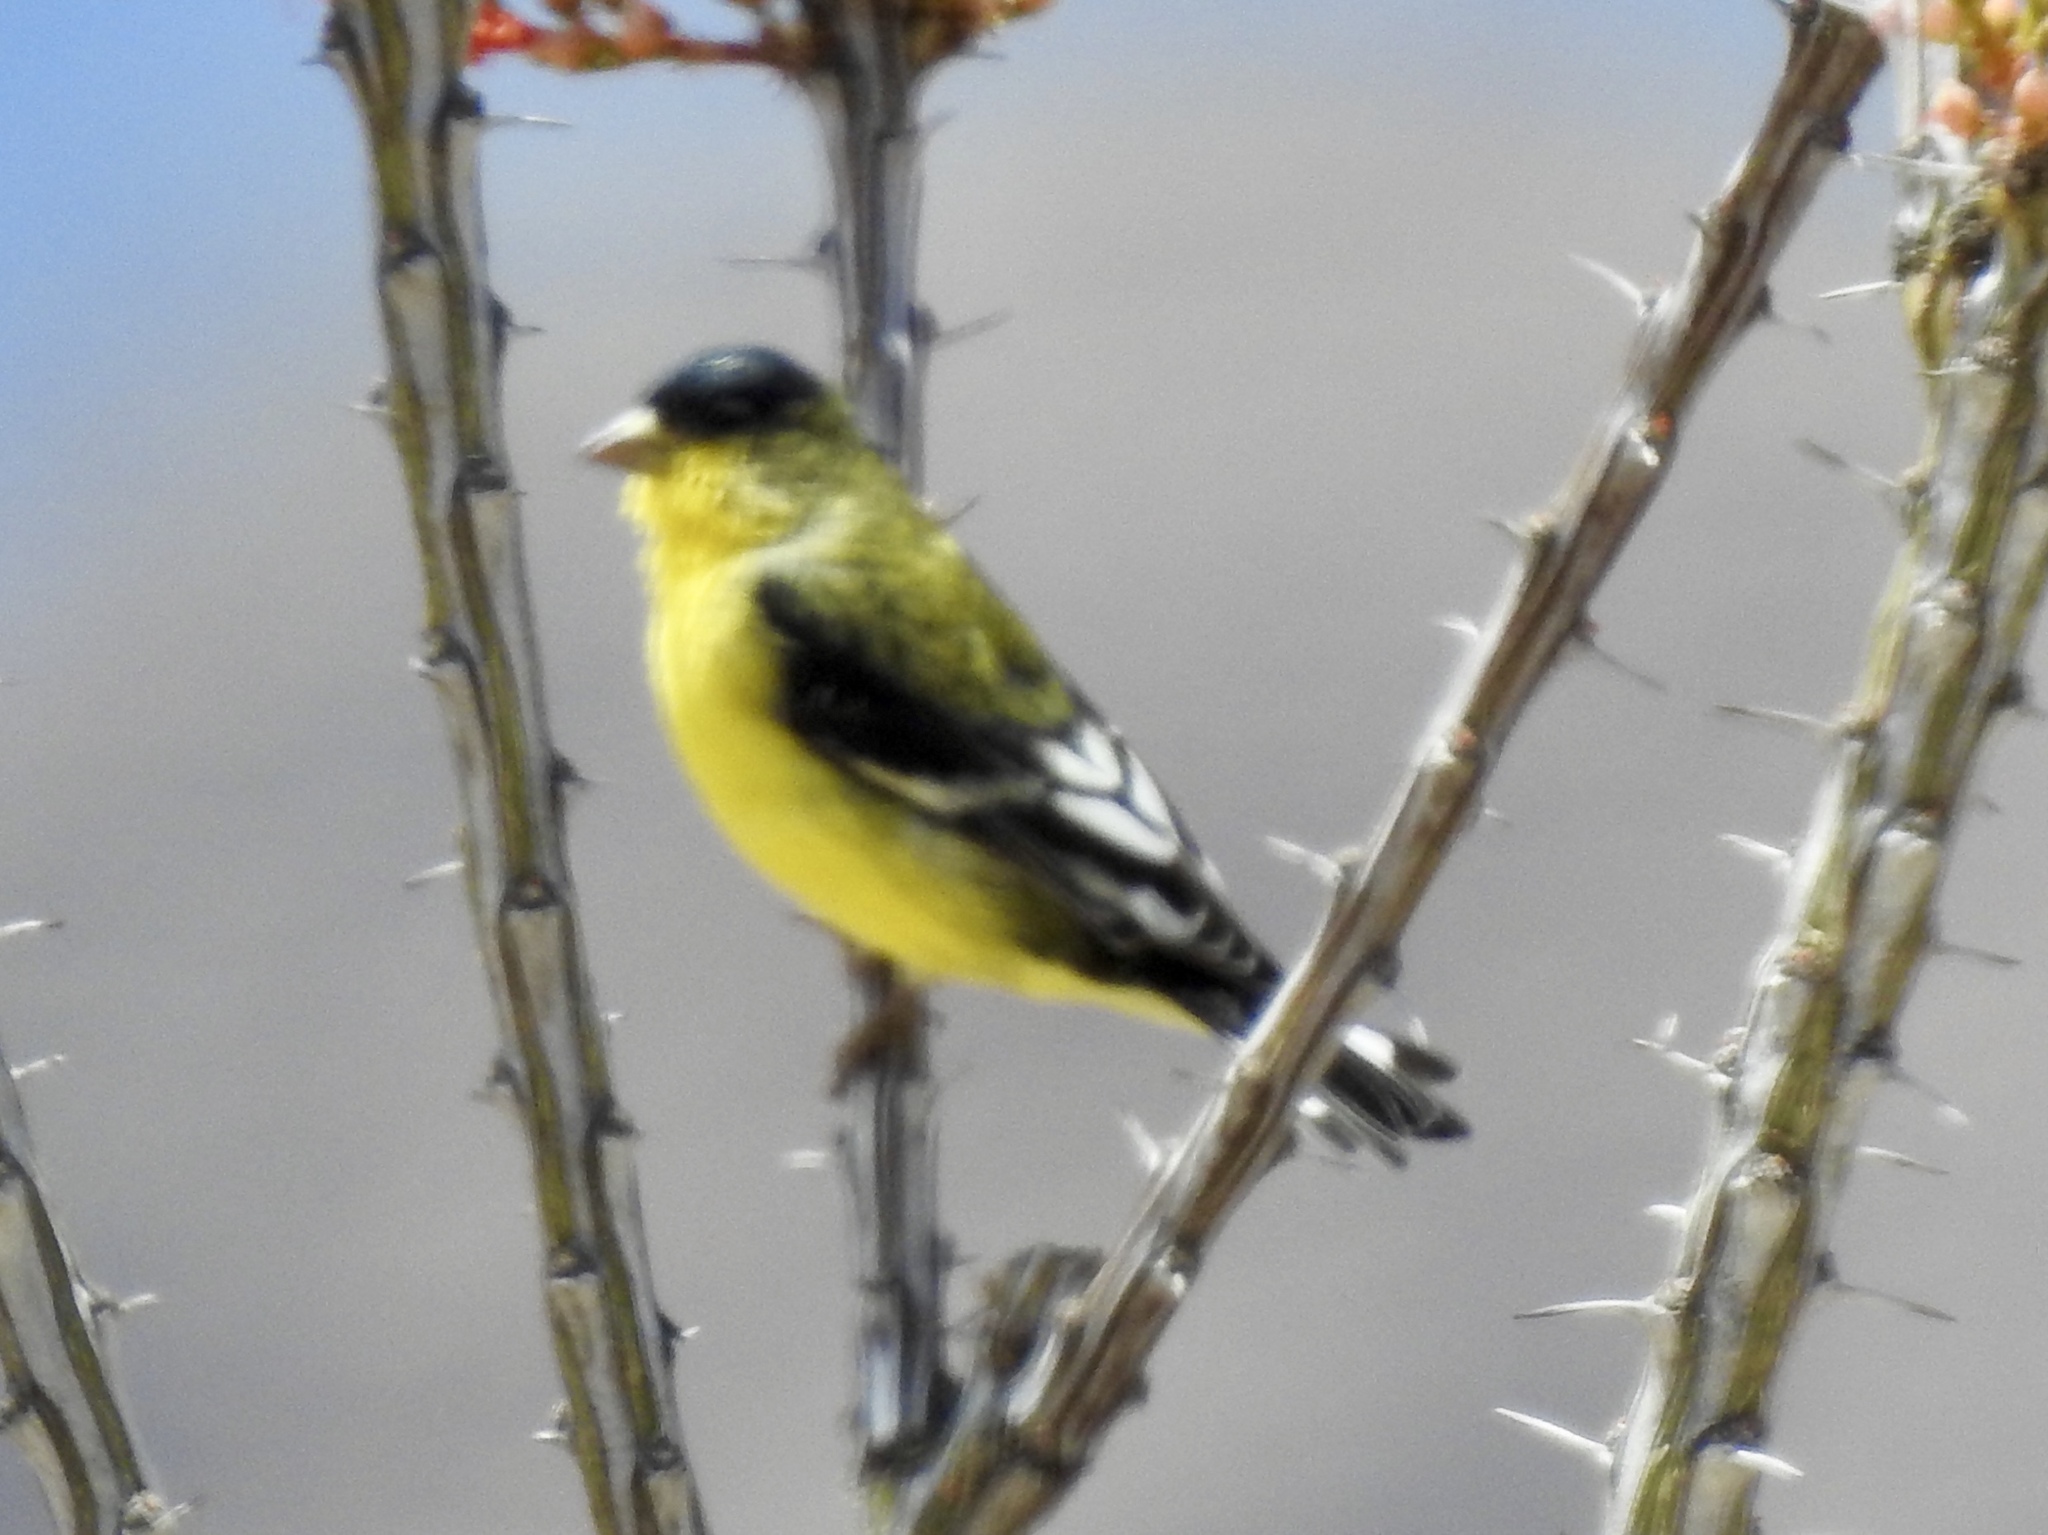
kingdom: Animalia
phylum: Chordata
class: Aves
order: Passeriformes
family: Fringillidae
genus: Spinus
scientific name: Spinus psaltria
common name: Lesser goldfinch
